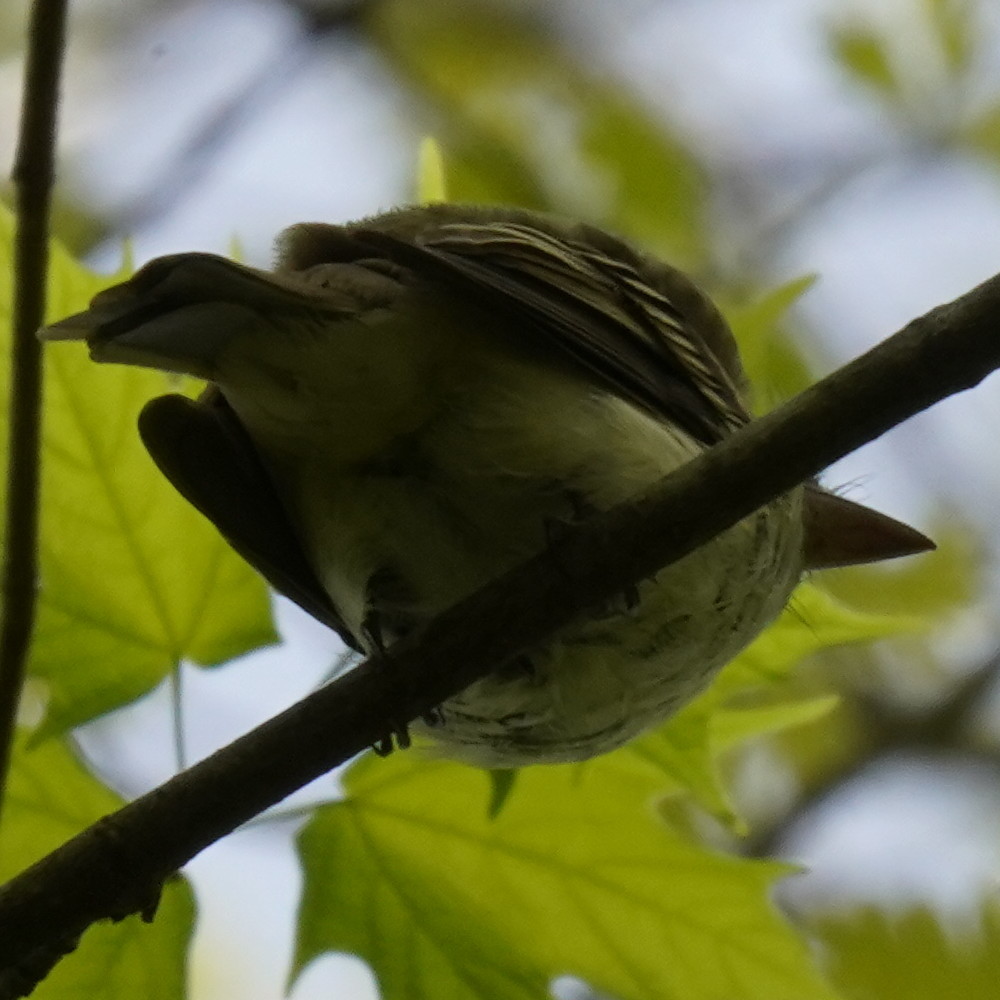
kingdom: Animalia
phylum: Chordata
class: Aves
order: Passeriformes
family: Tyrannidae
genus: Empidonax
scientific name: Empidonax
